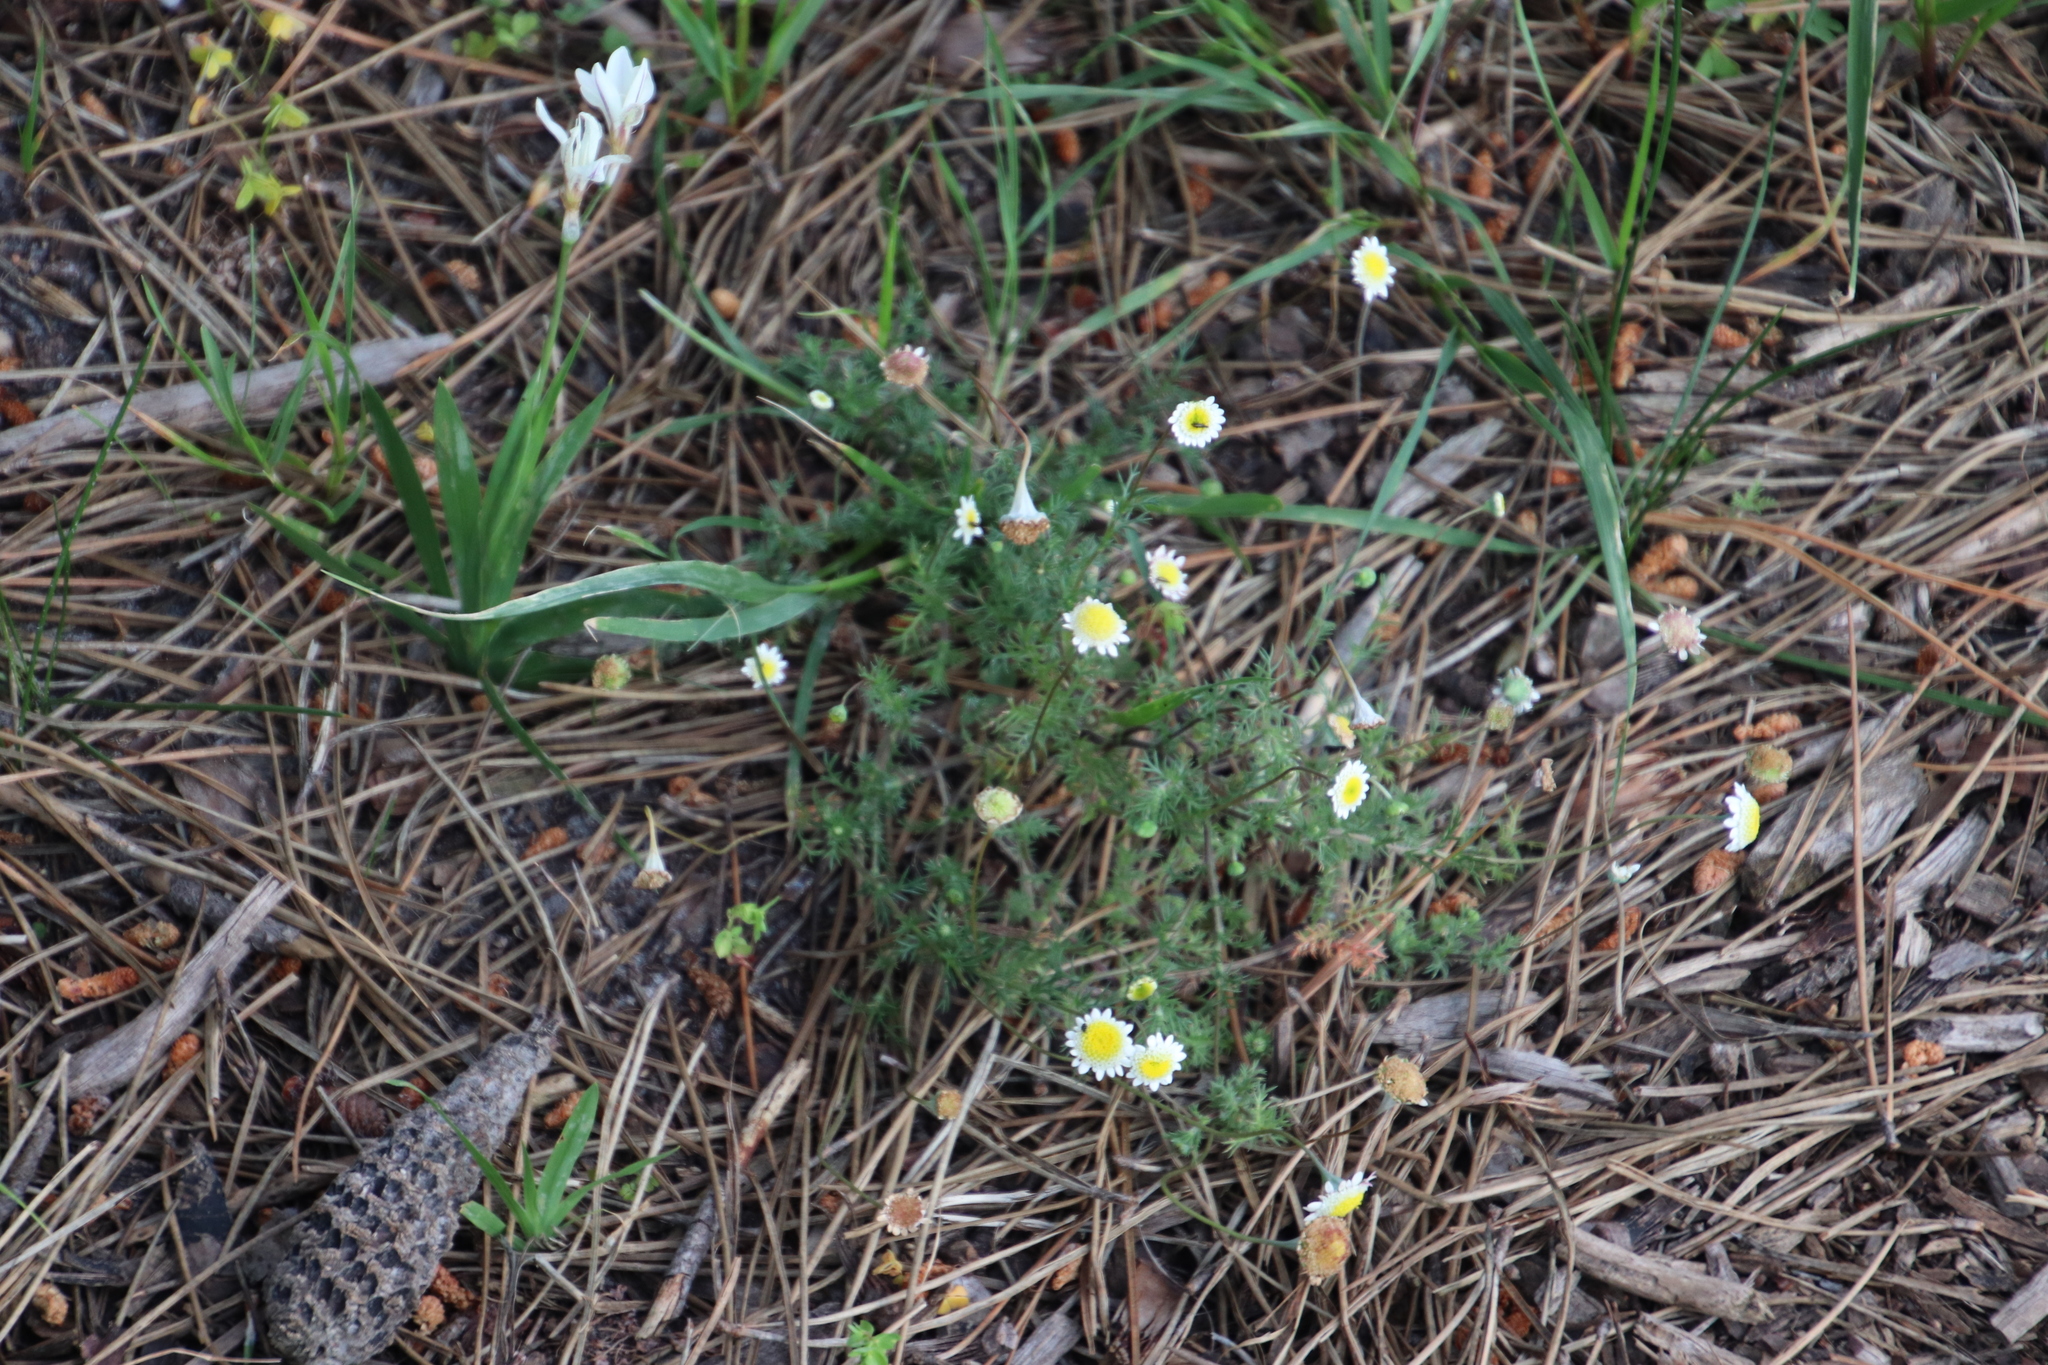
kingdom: Plantae
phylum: Tracheophyta
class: Magnoliopsida
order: Asterales
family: Asteraceae
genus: Cotula
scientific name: Cotula turbinata
